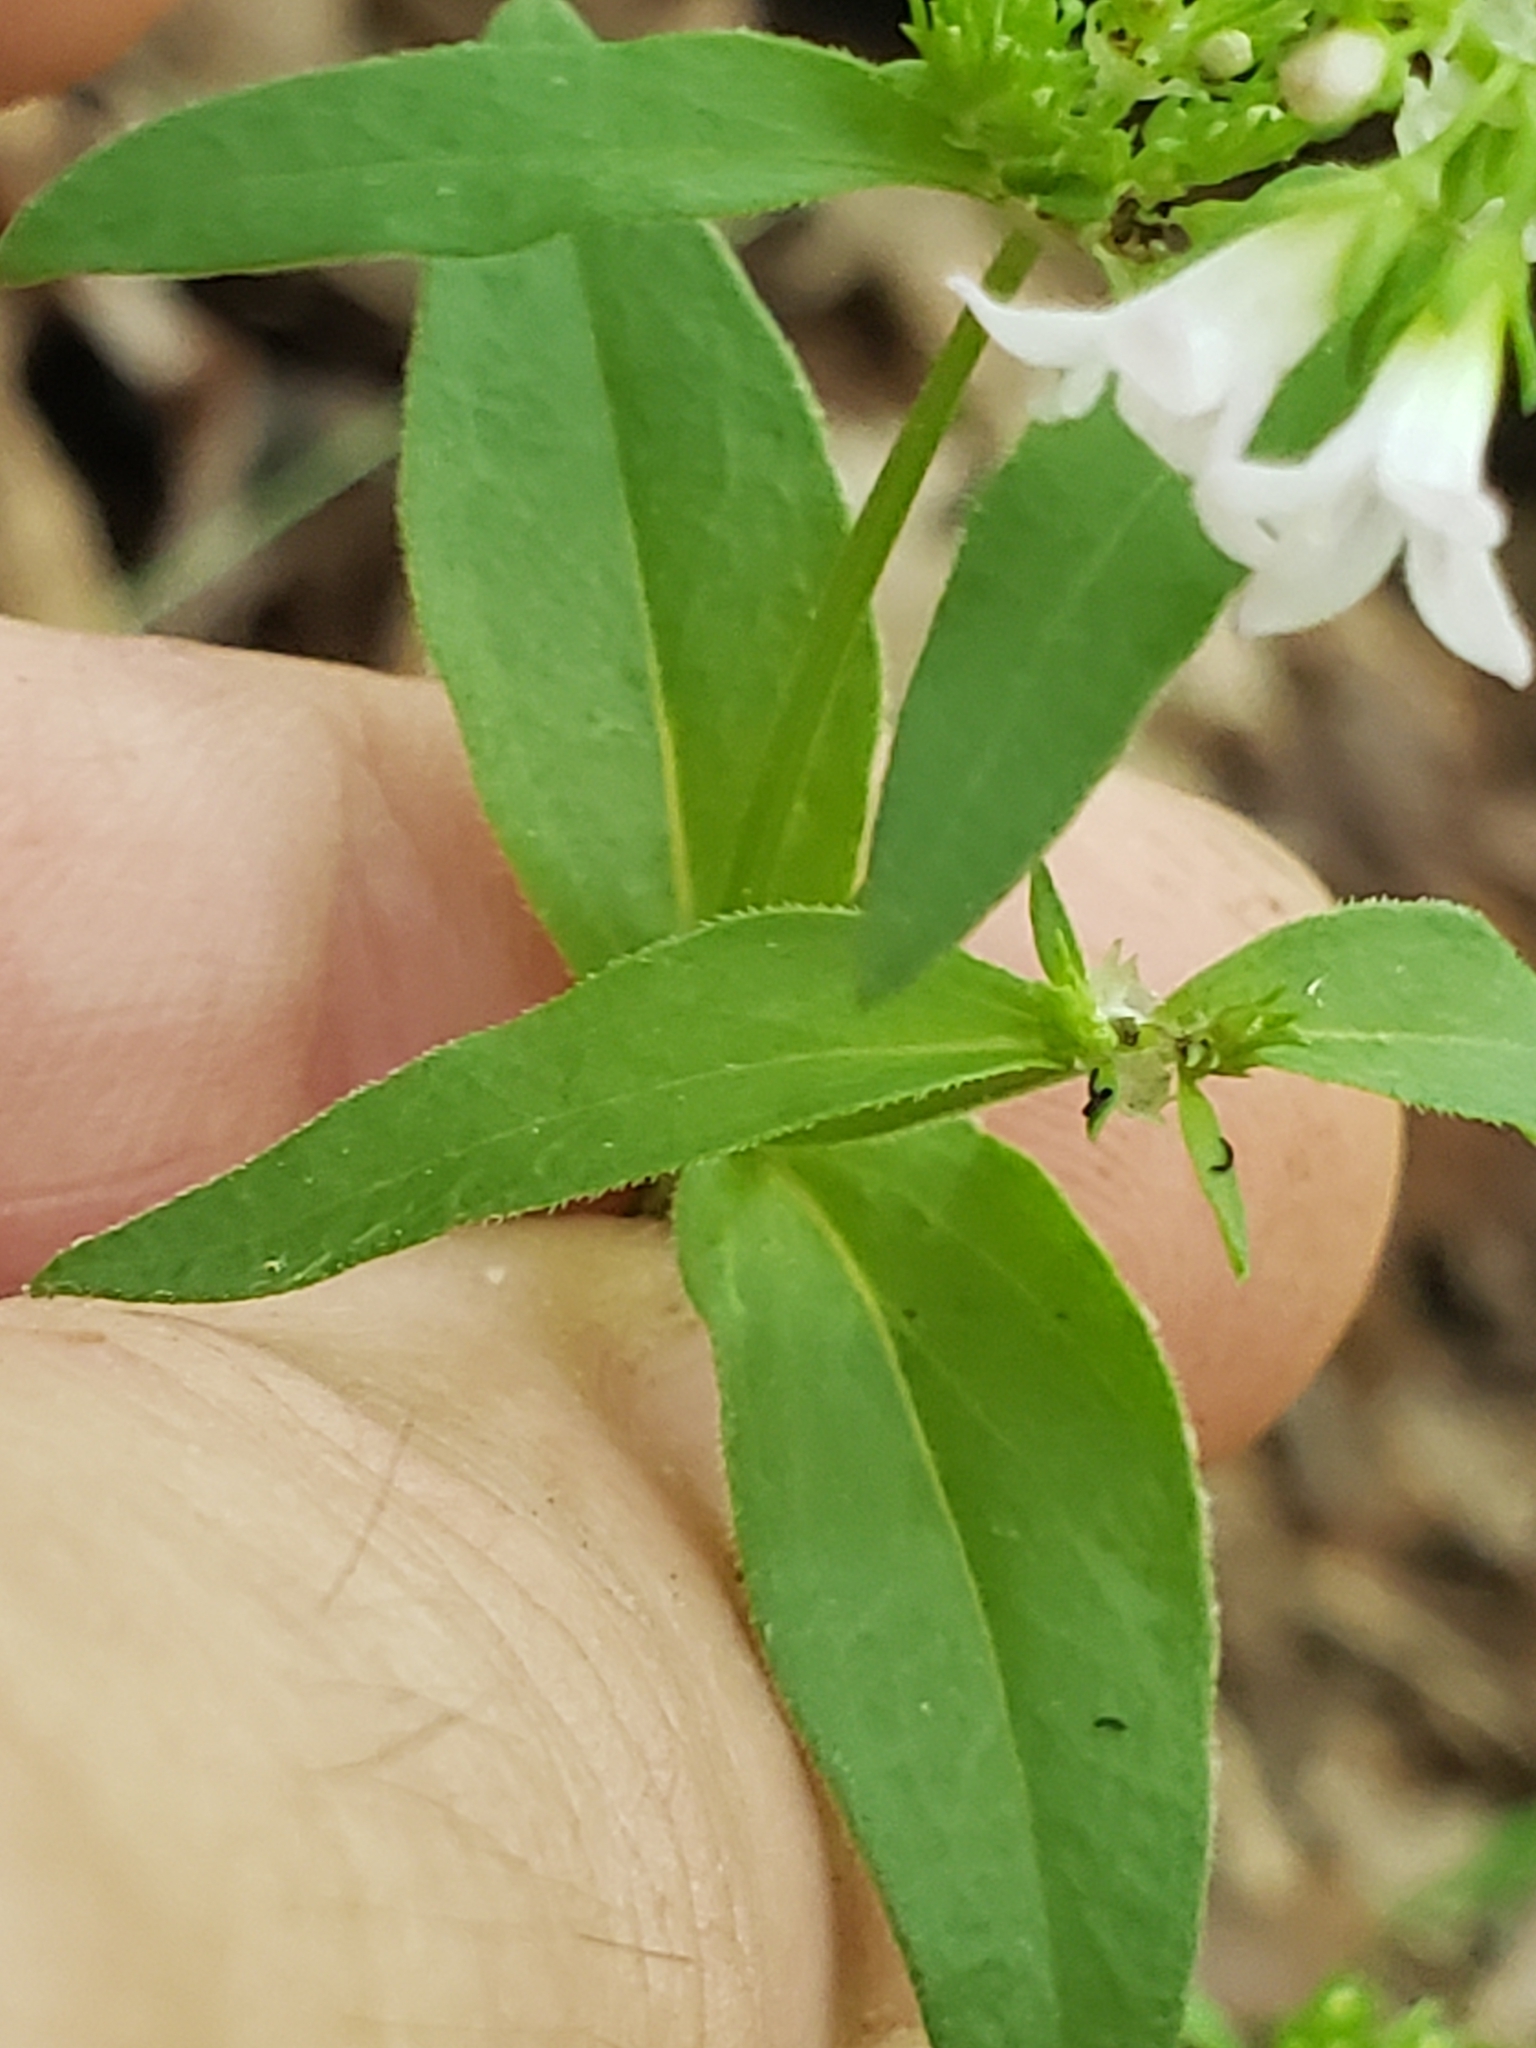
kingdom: Plantae
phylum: Tracheophyta
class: Magnoliopsida
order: Gentianales
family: Rubiaceae
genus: Houstonia
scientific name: Houstonia longifolia
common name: Long-leaved bluets
